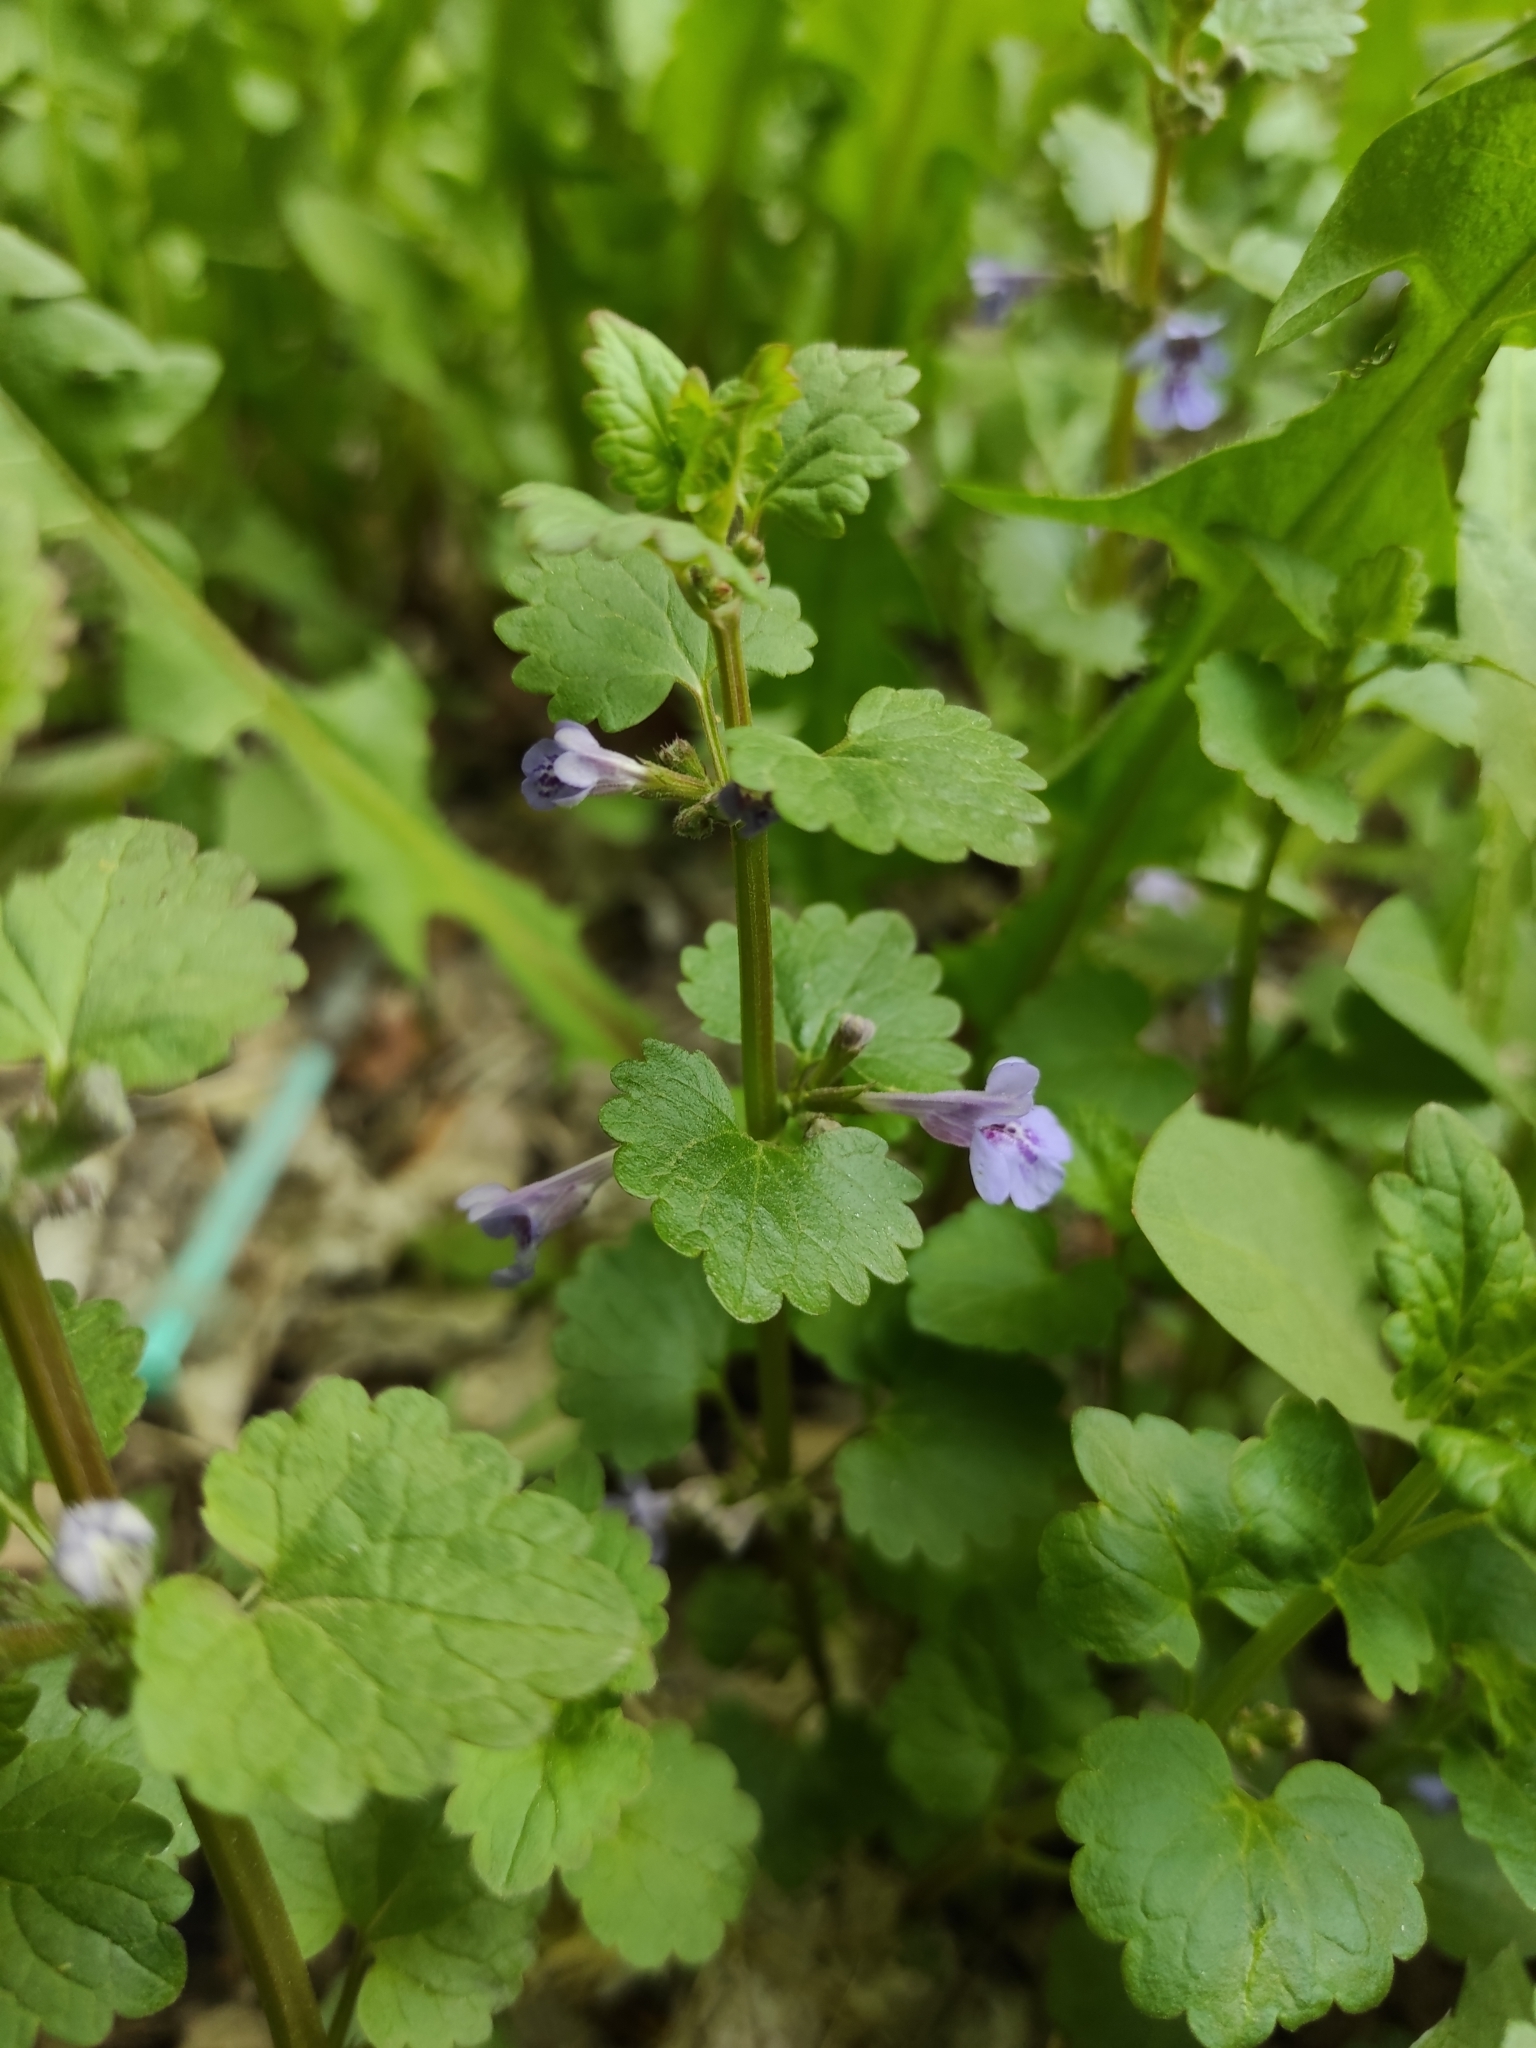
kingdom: Plantae
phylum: Tracheophyta
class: Magnoliopsida
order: Lamiales
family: Lamiaceae
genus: Glechoma
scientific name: Glechoma hederacea
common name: Ground ivy
